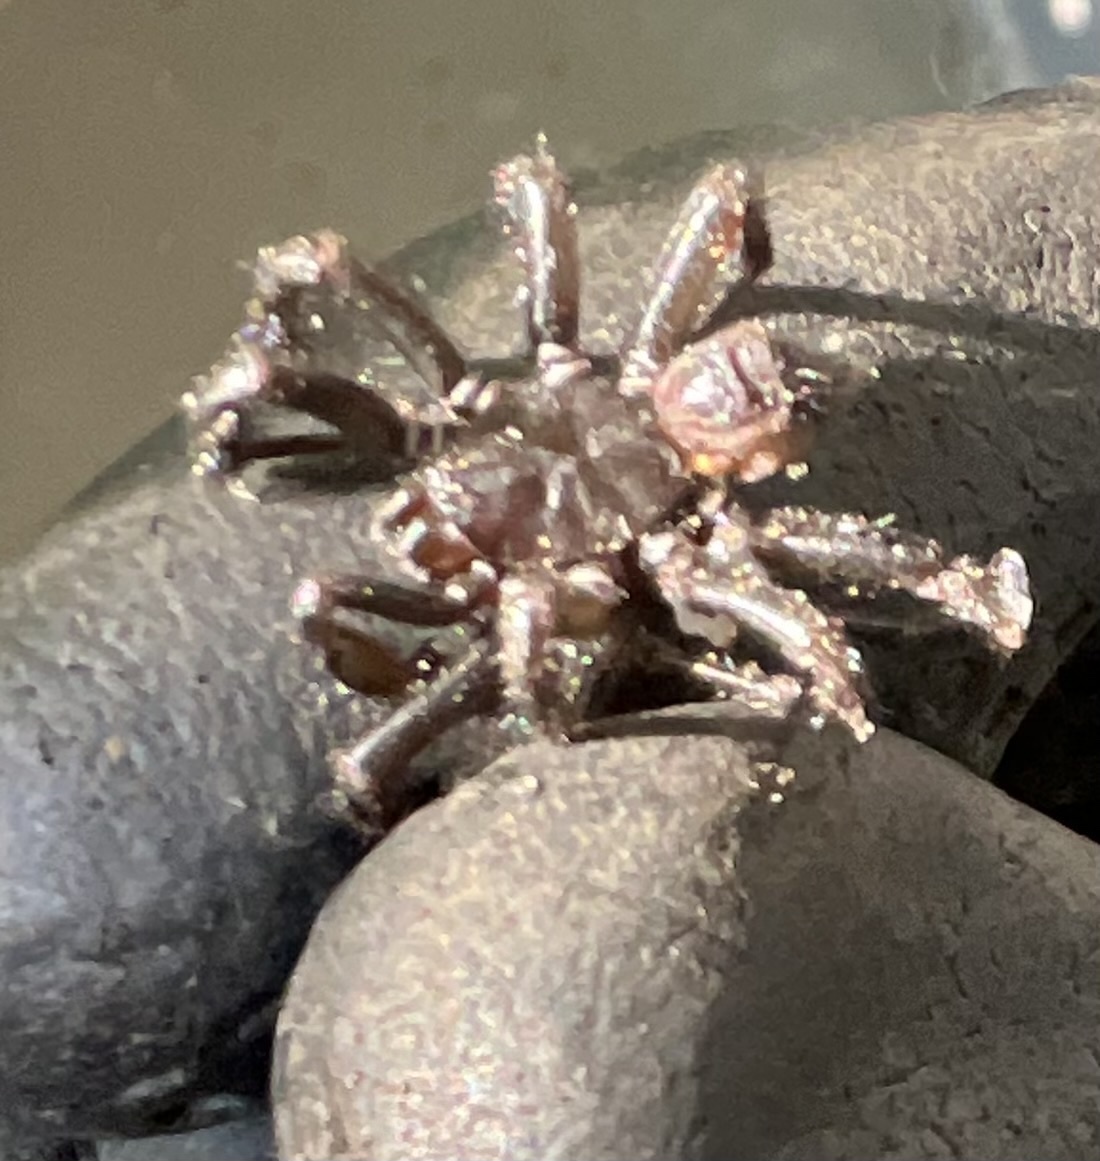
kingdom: Animalia
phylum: Arthropoda
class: Arachnida
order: Araneae
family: Antrodiaetidae
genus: Antrodiaetus
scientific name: Antrodiaetus pacificus
